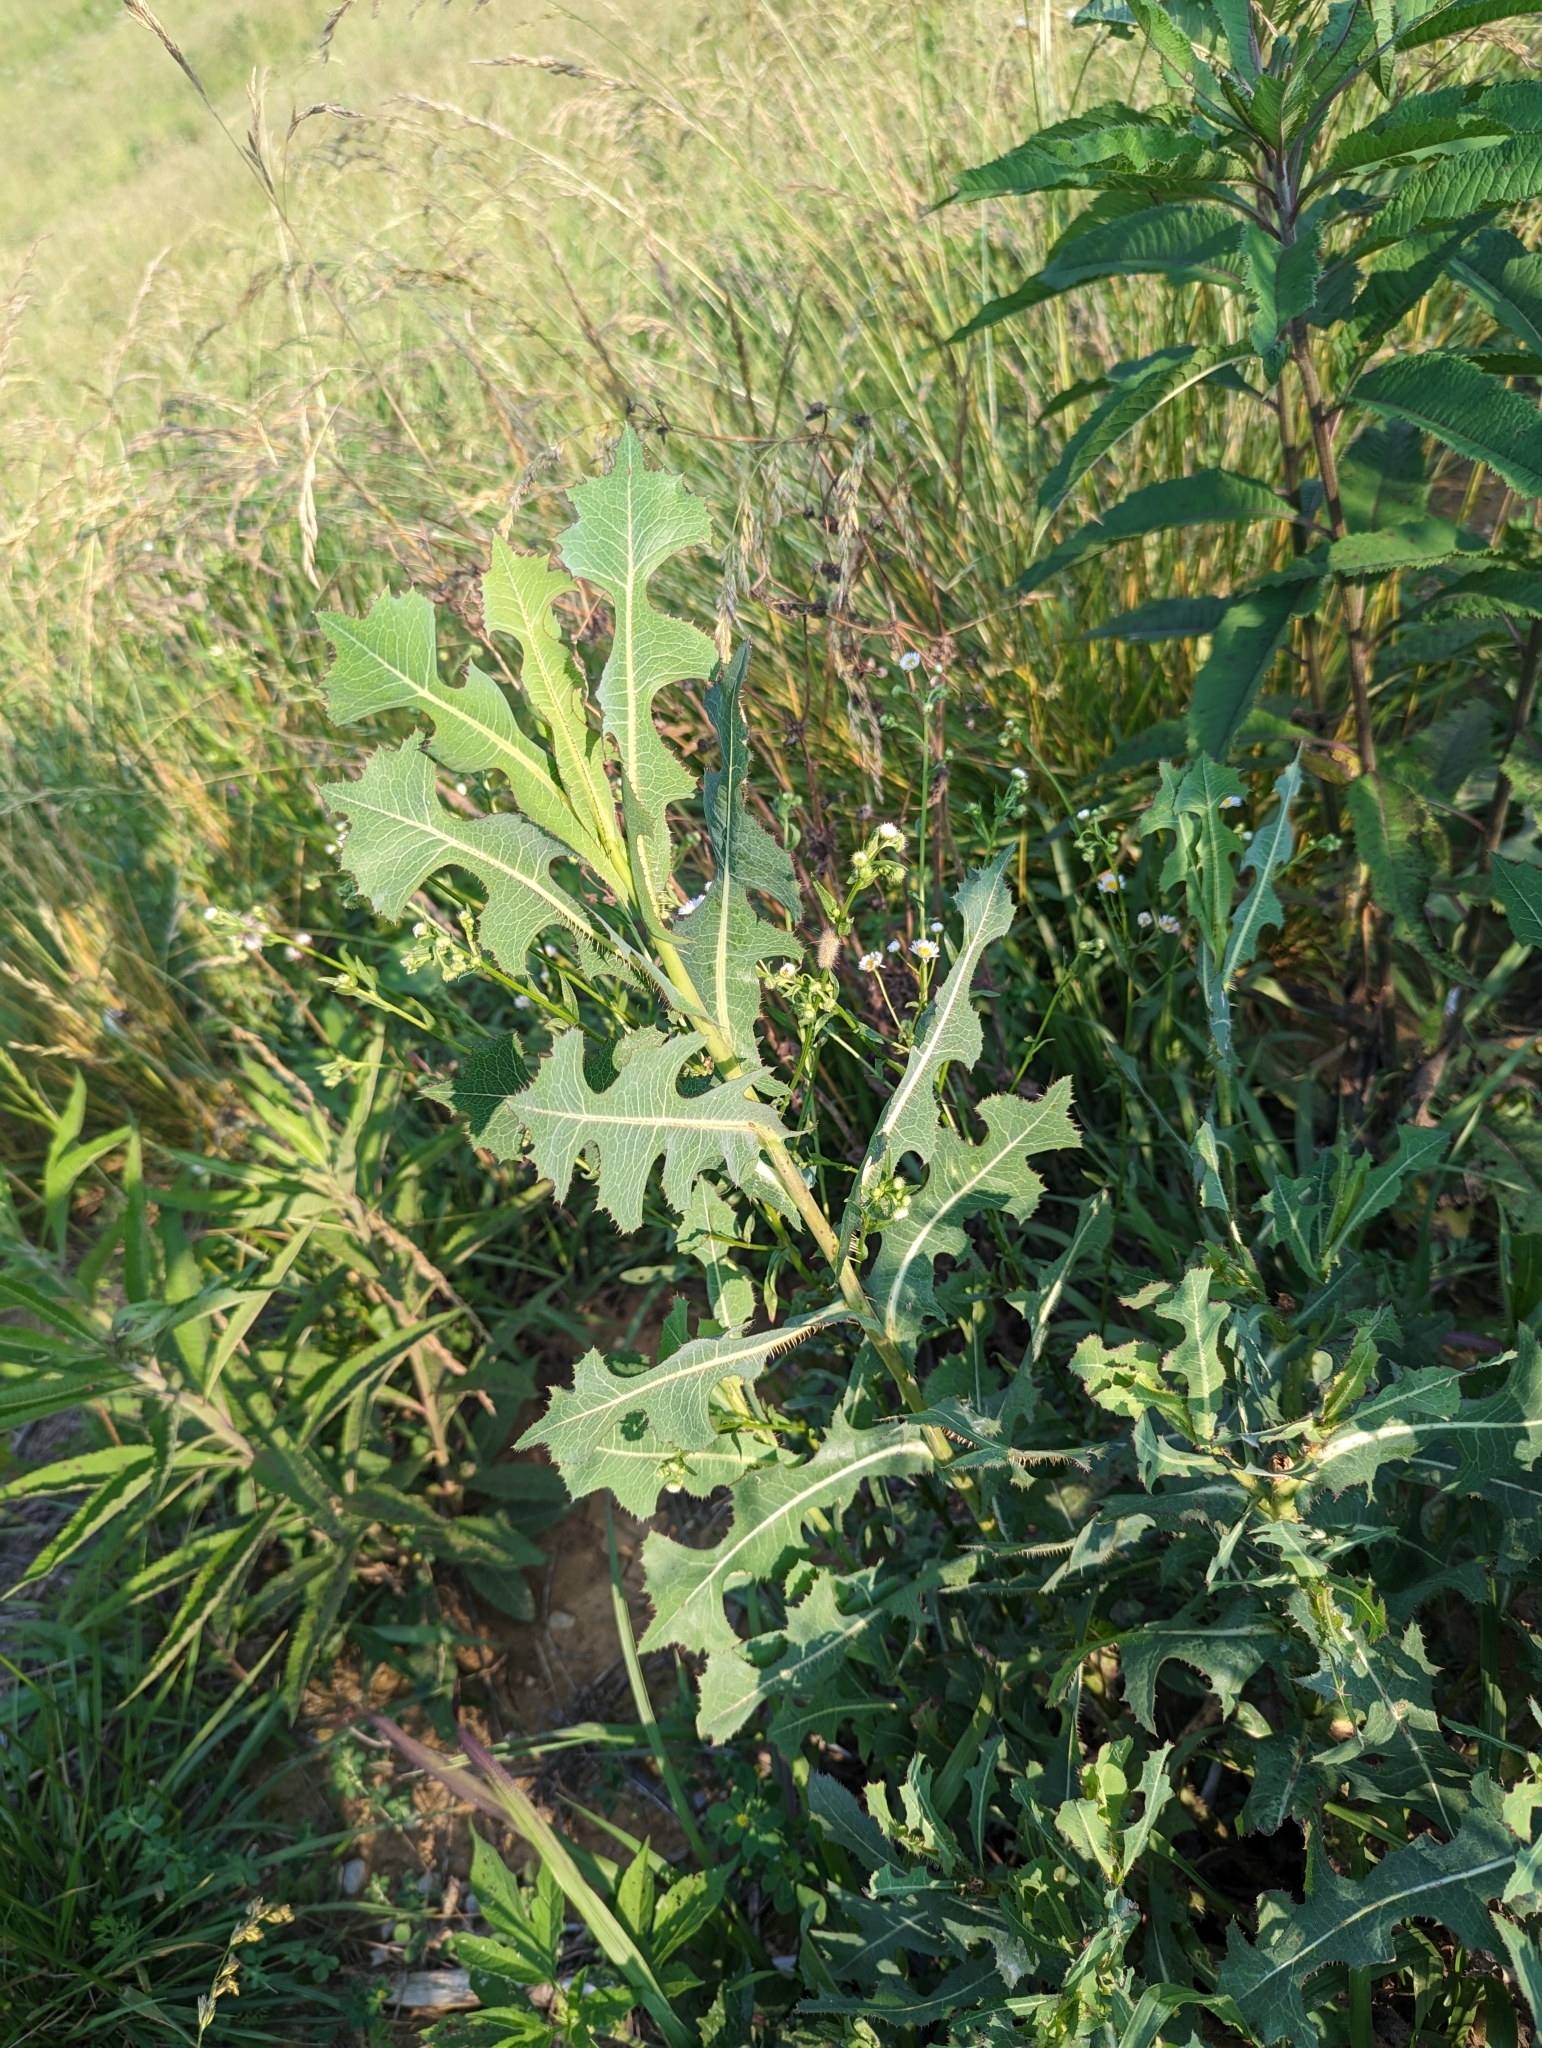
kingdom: Plantae
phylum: Tracheophyta
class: Magnoliopsida
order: Asterales
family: Asteraceae
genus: Lactuca
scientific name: Lactuca serriola
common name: Prickly lettuce
